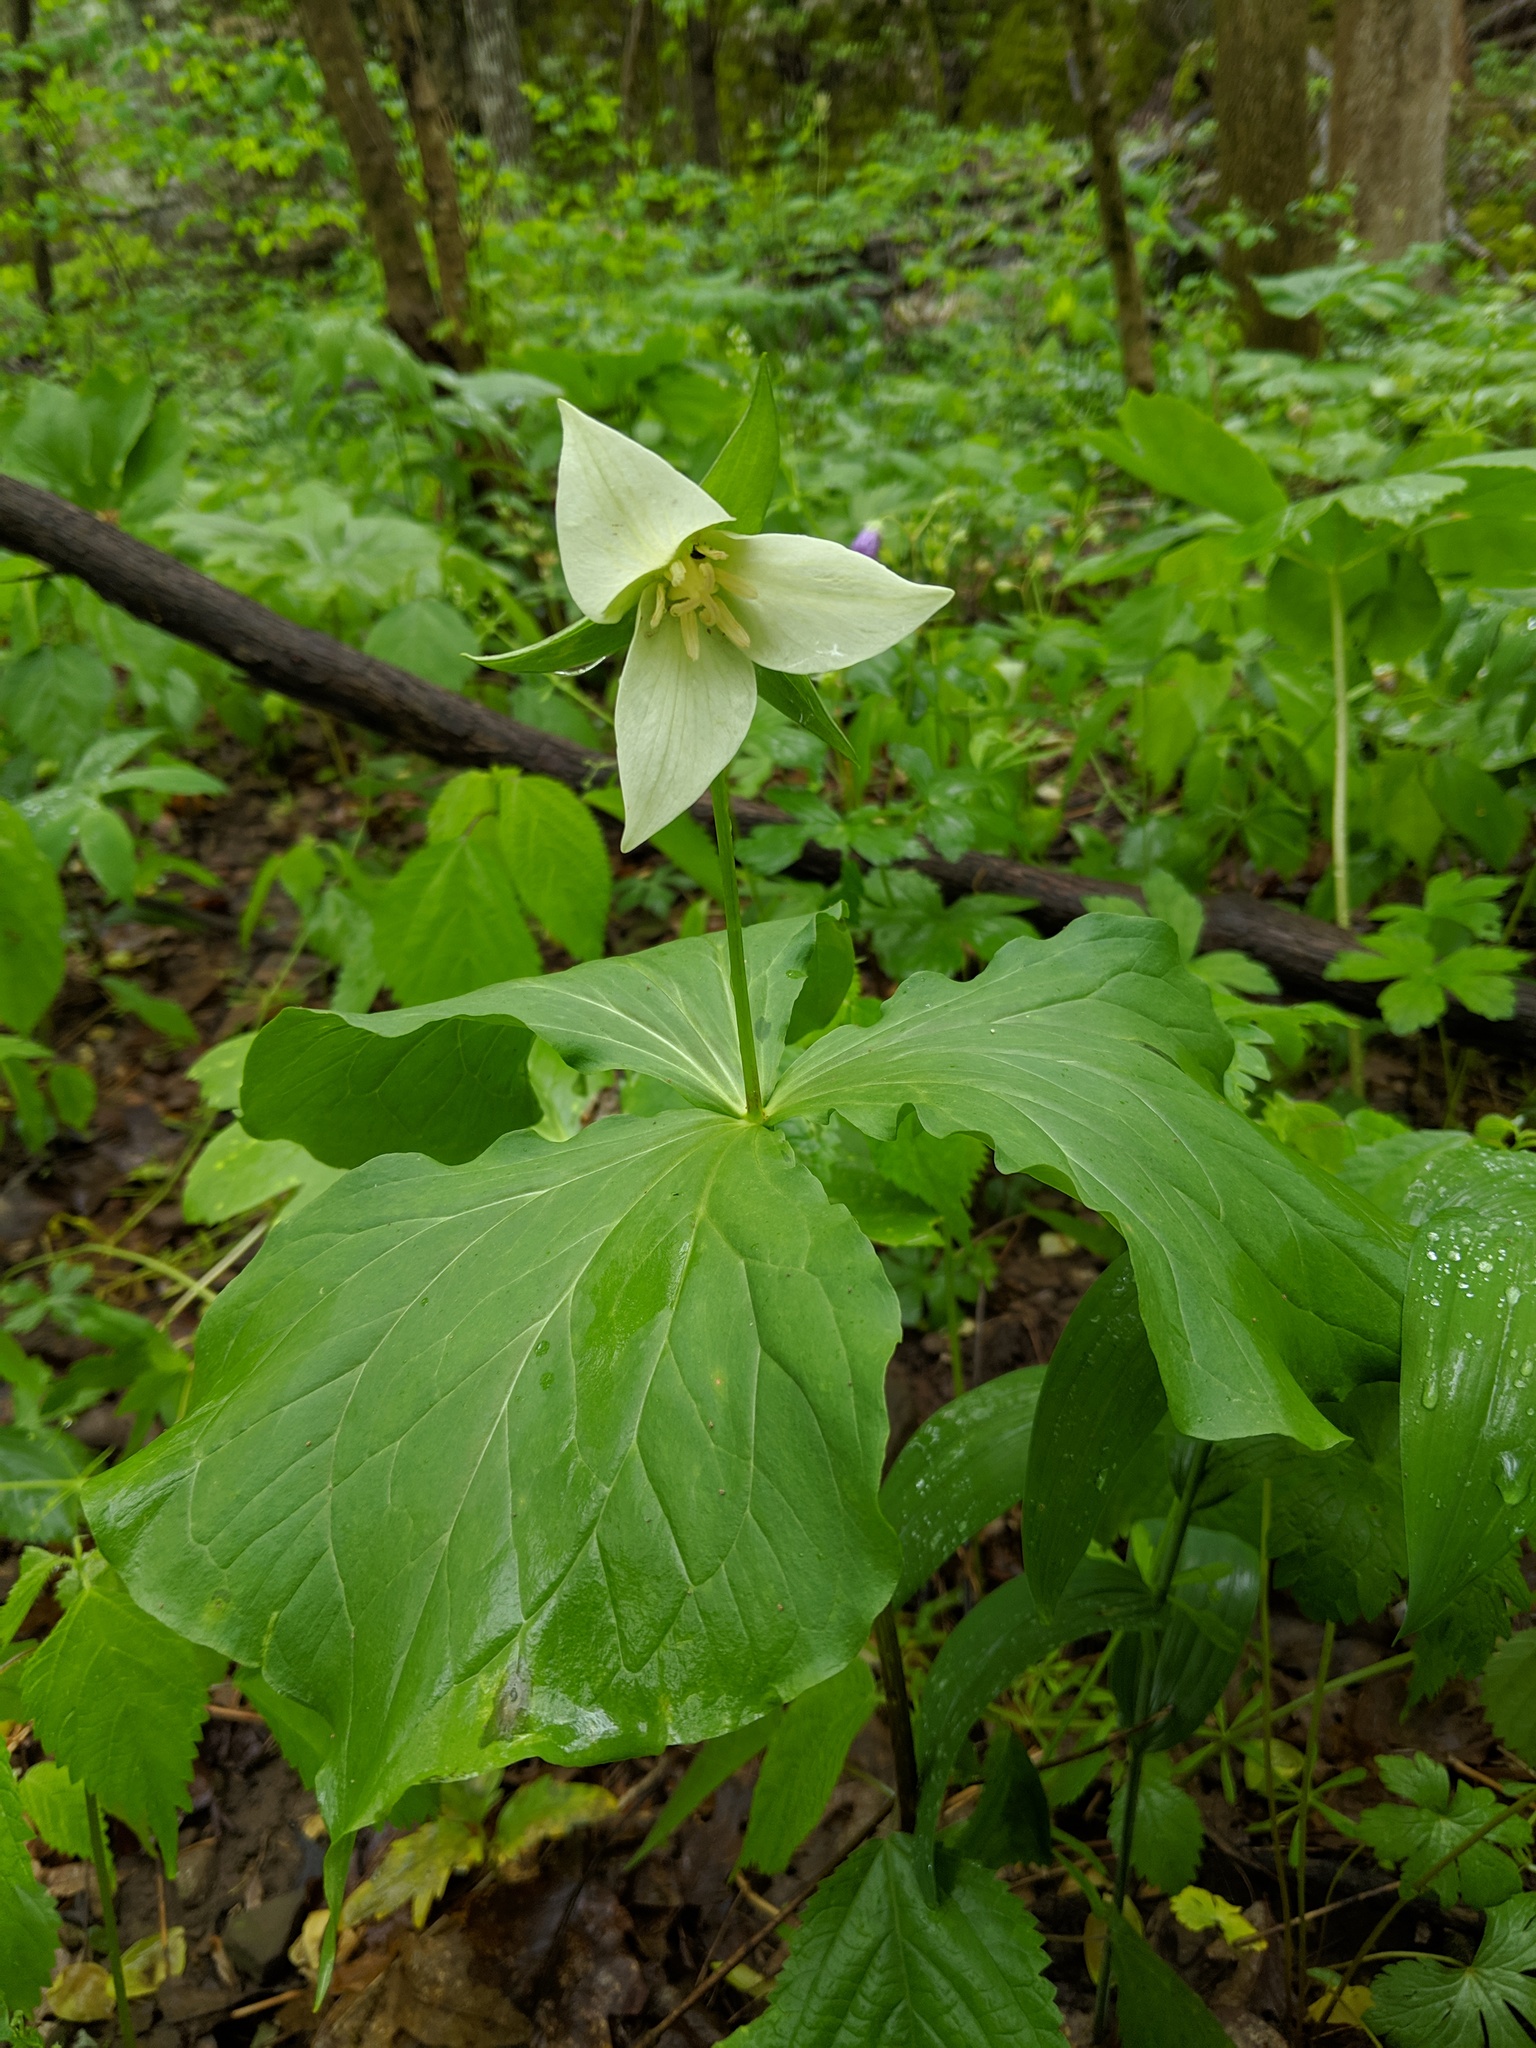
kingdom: Plantae
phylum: Tracheophyta
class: Liliopsida
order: Liliales
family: Melanthiaceae
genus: Trillium
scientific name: Trillium flexipes
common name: Drooping trillium
